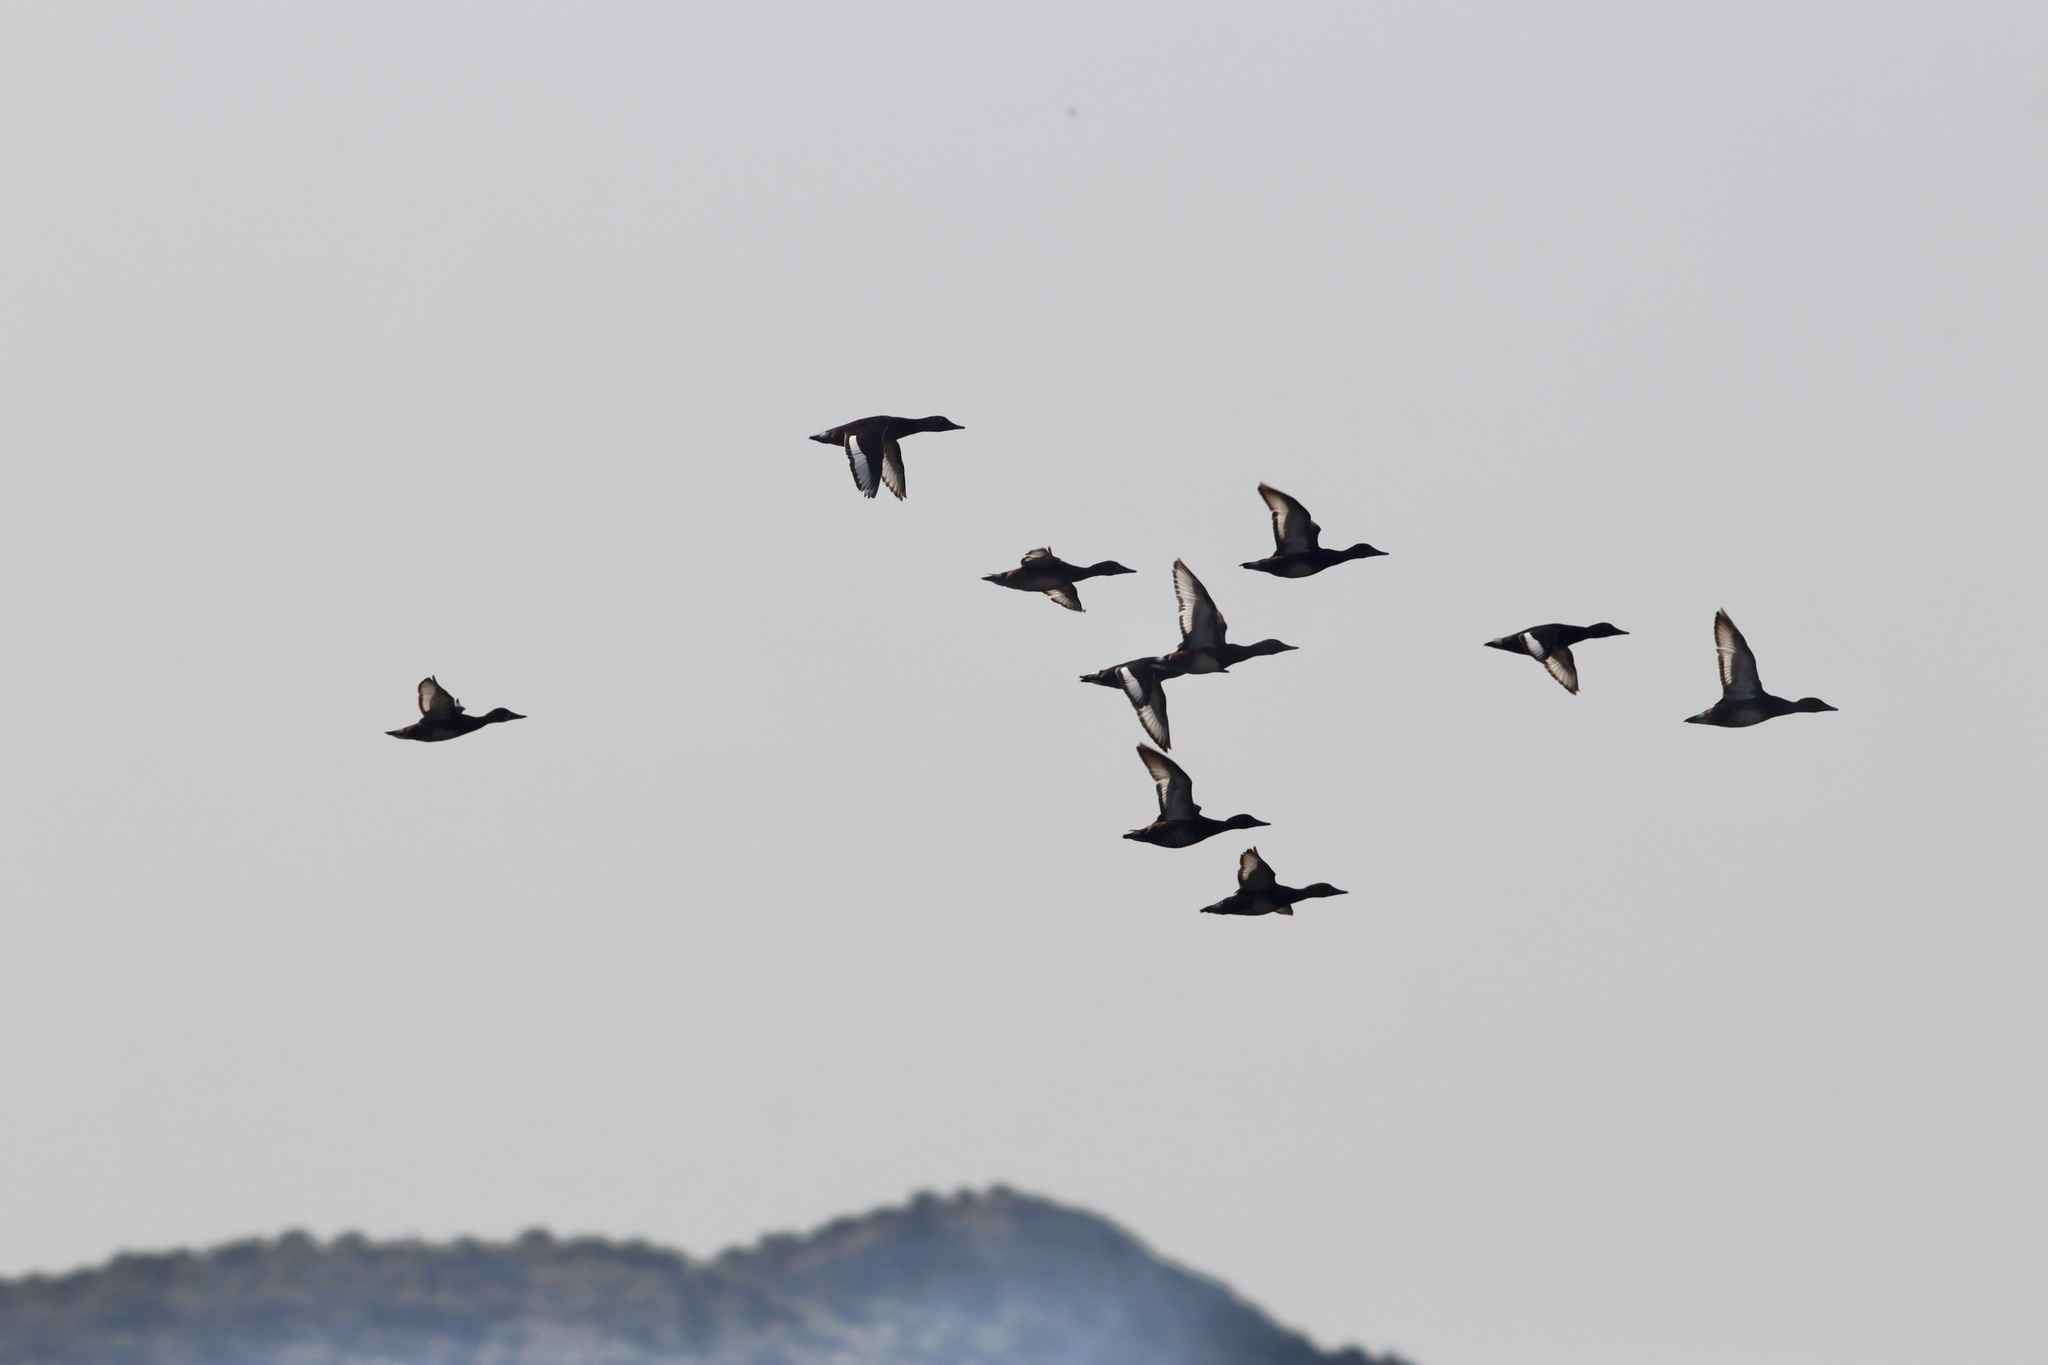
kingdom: Animalia
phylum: Chordata
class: Aves
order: Anseriformes
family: Anatidae
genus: Aythya
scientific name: Aythya nyroca
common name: Ferruginous duck
